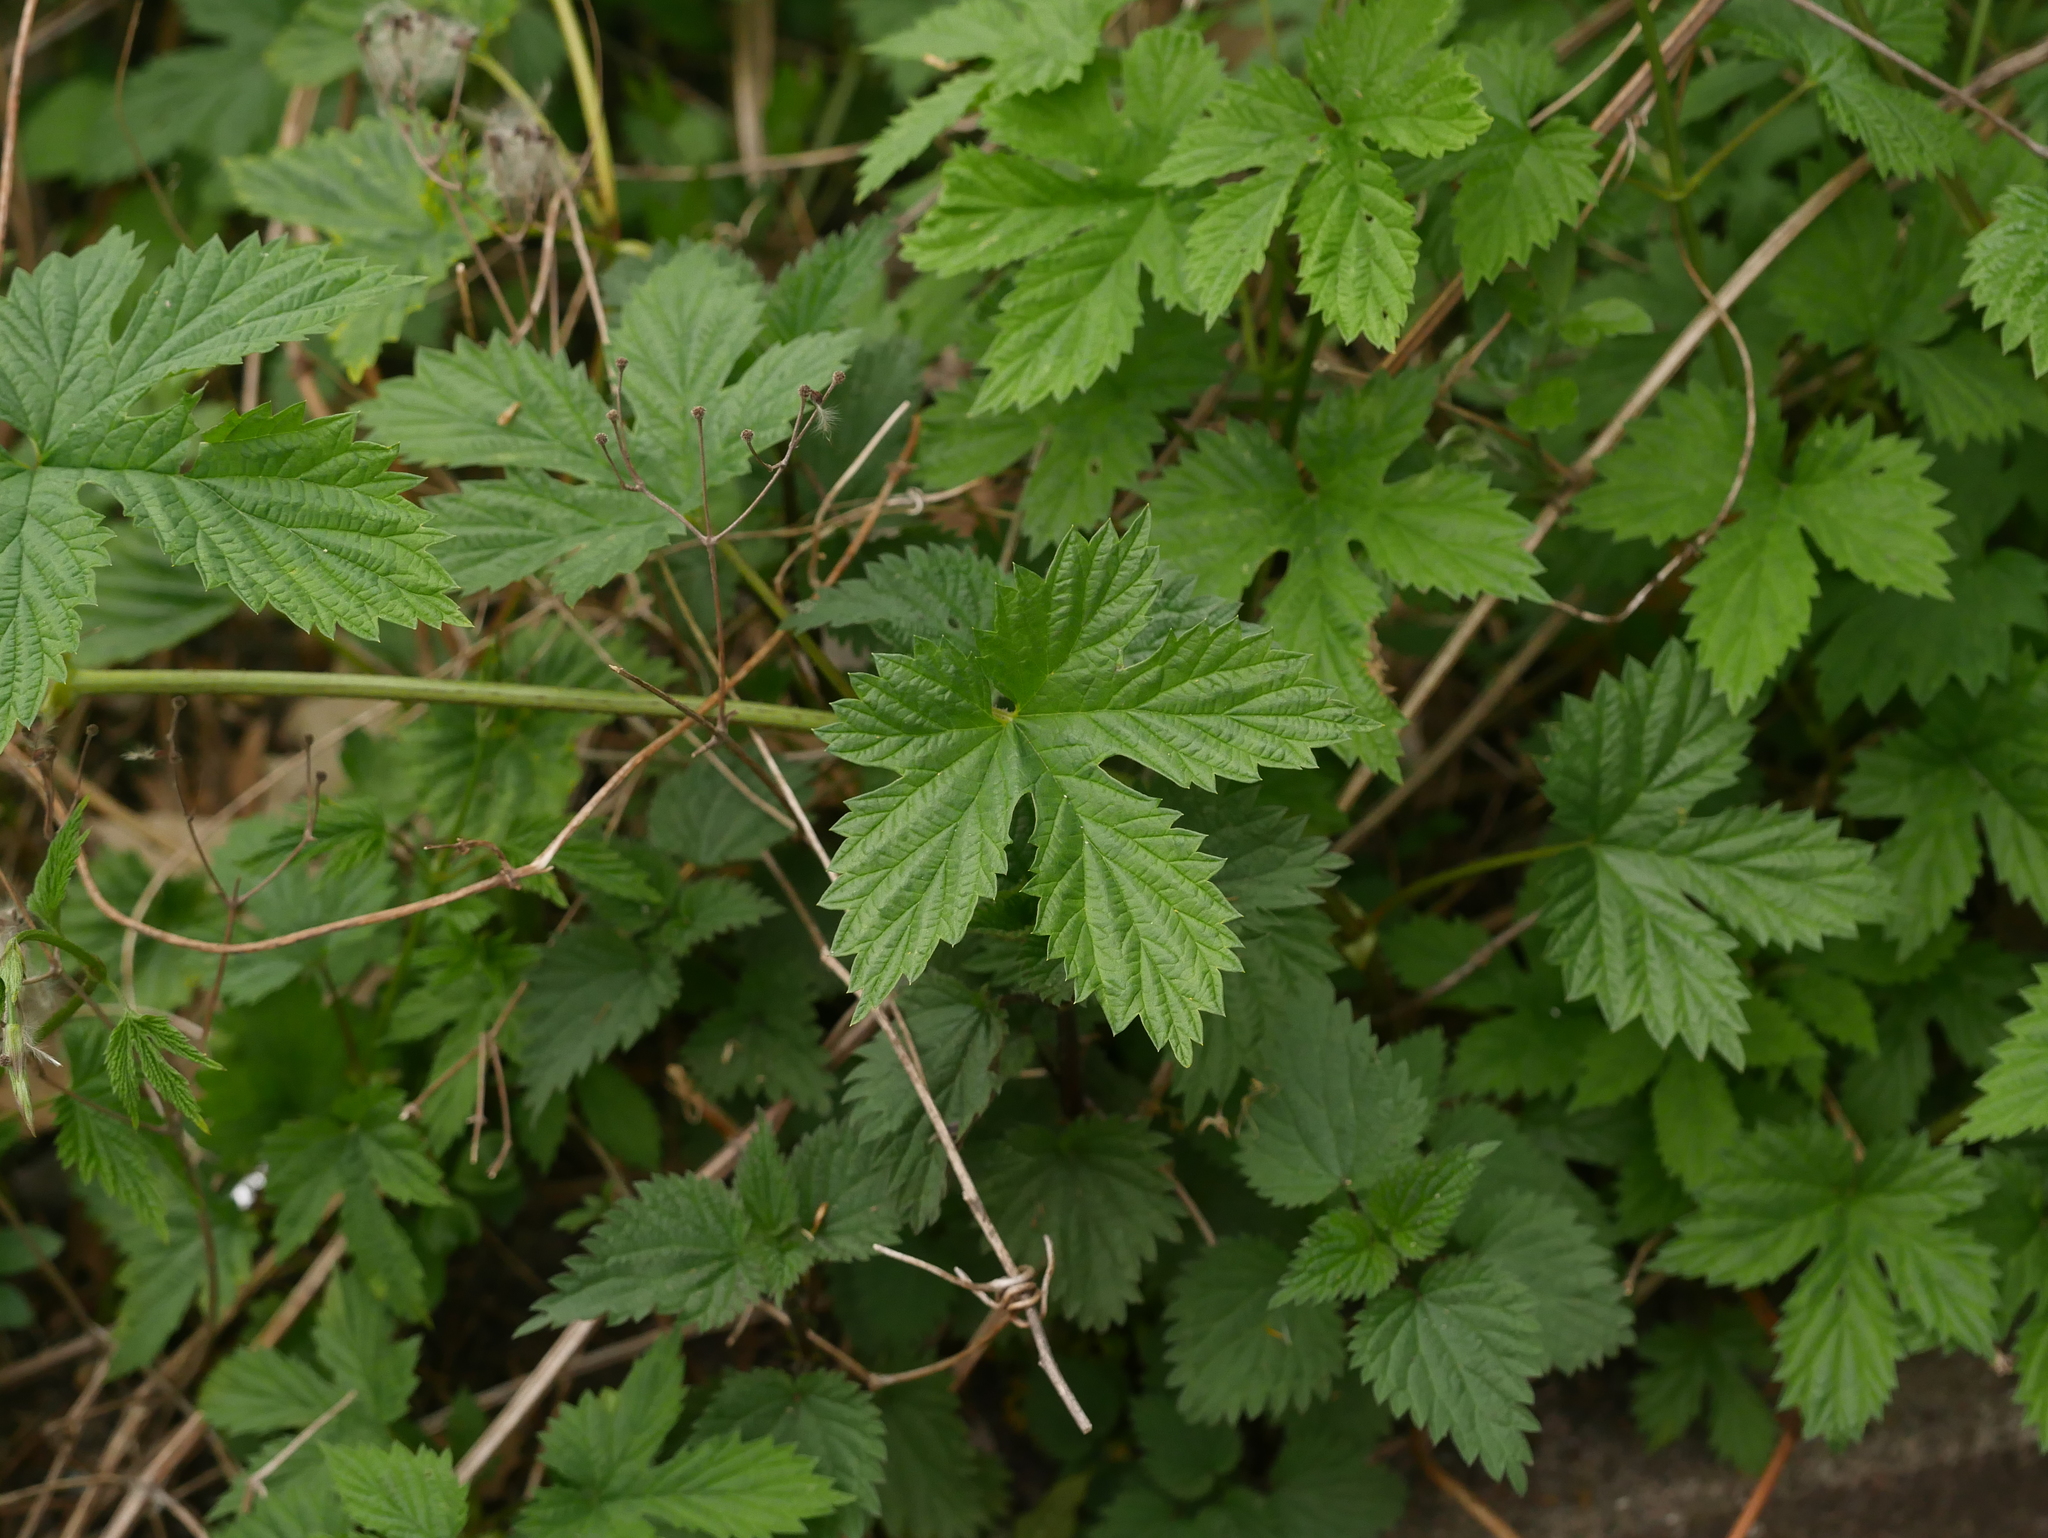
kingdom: Plantae
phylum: Tracheophyta
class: Magnoliopsida
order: Rosales
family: Cannabaceae
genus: Humulus
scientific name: Humulus lupulus
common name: Hop
